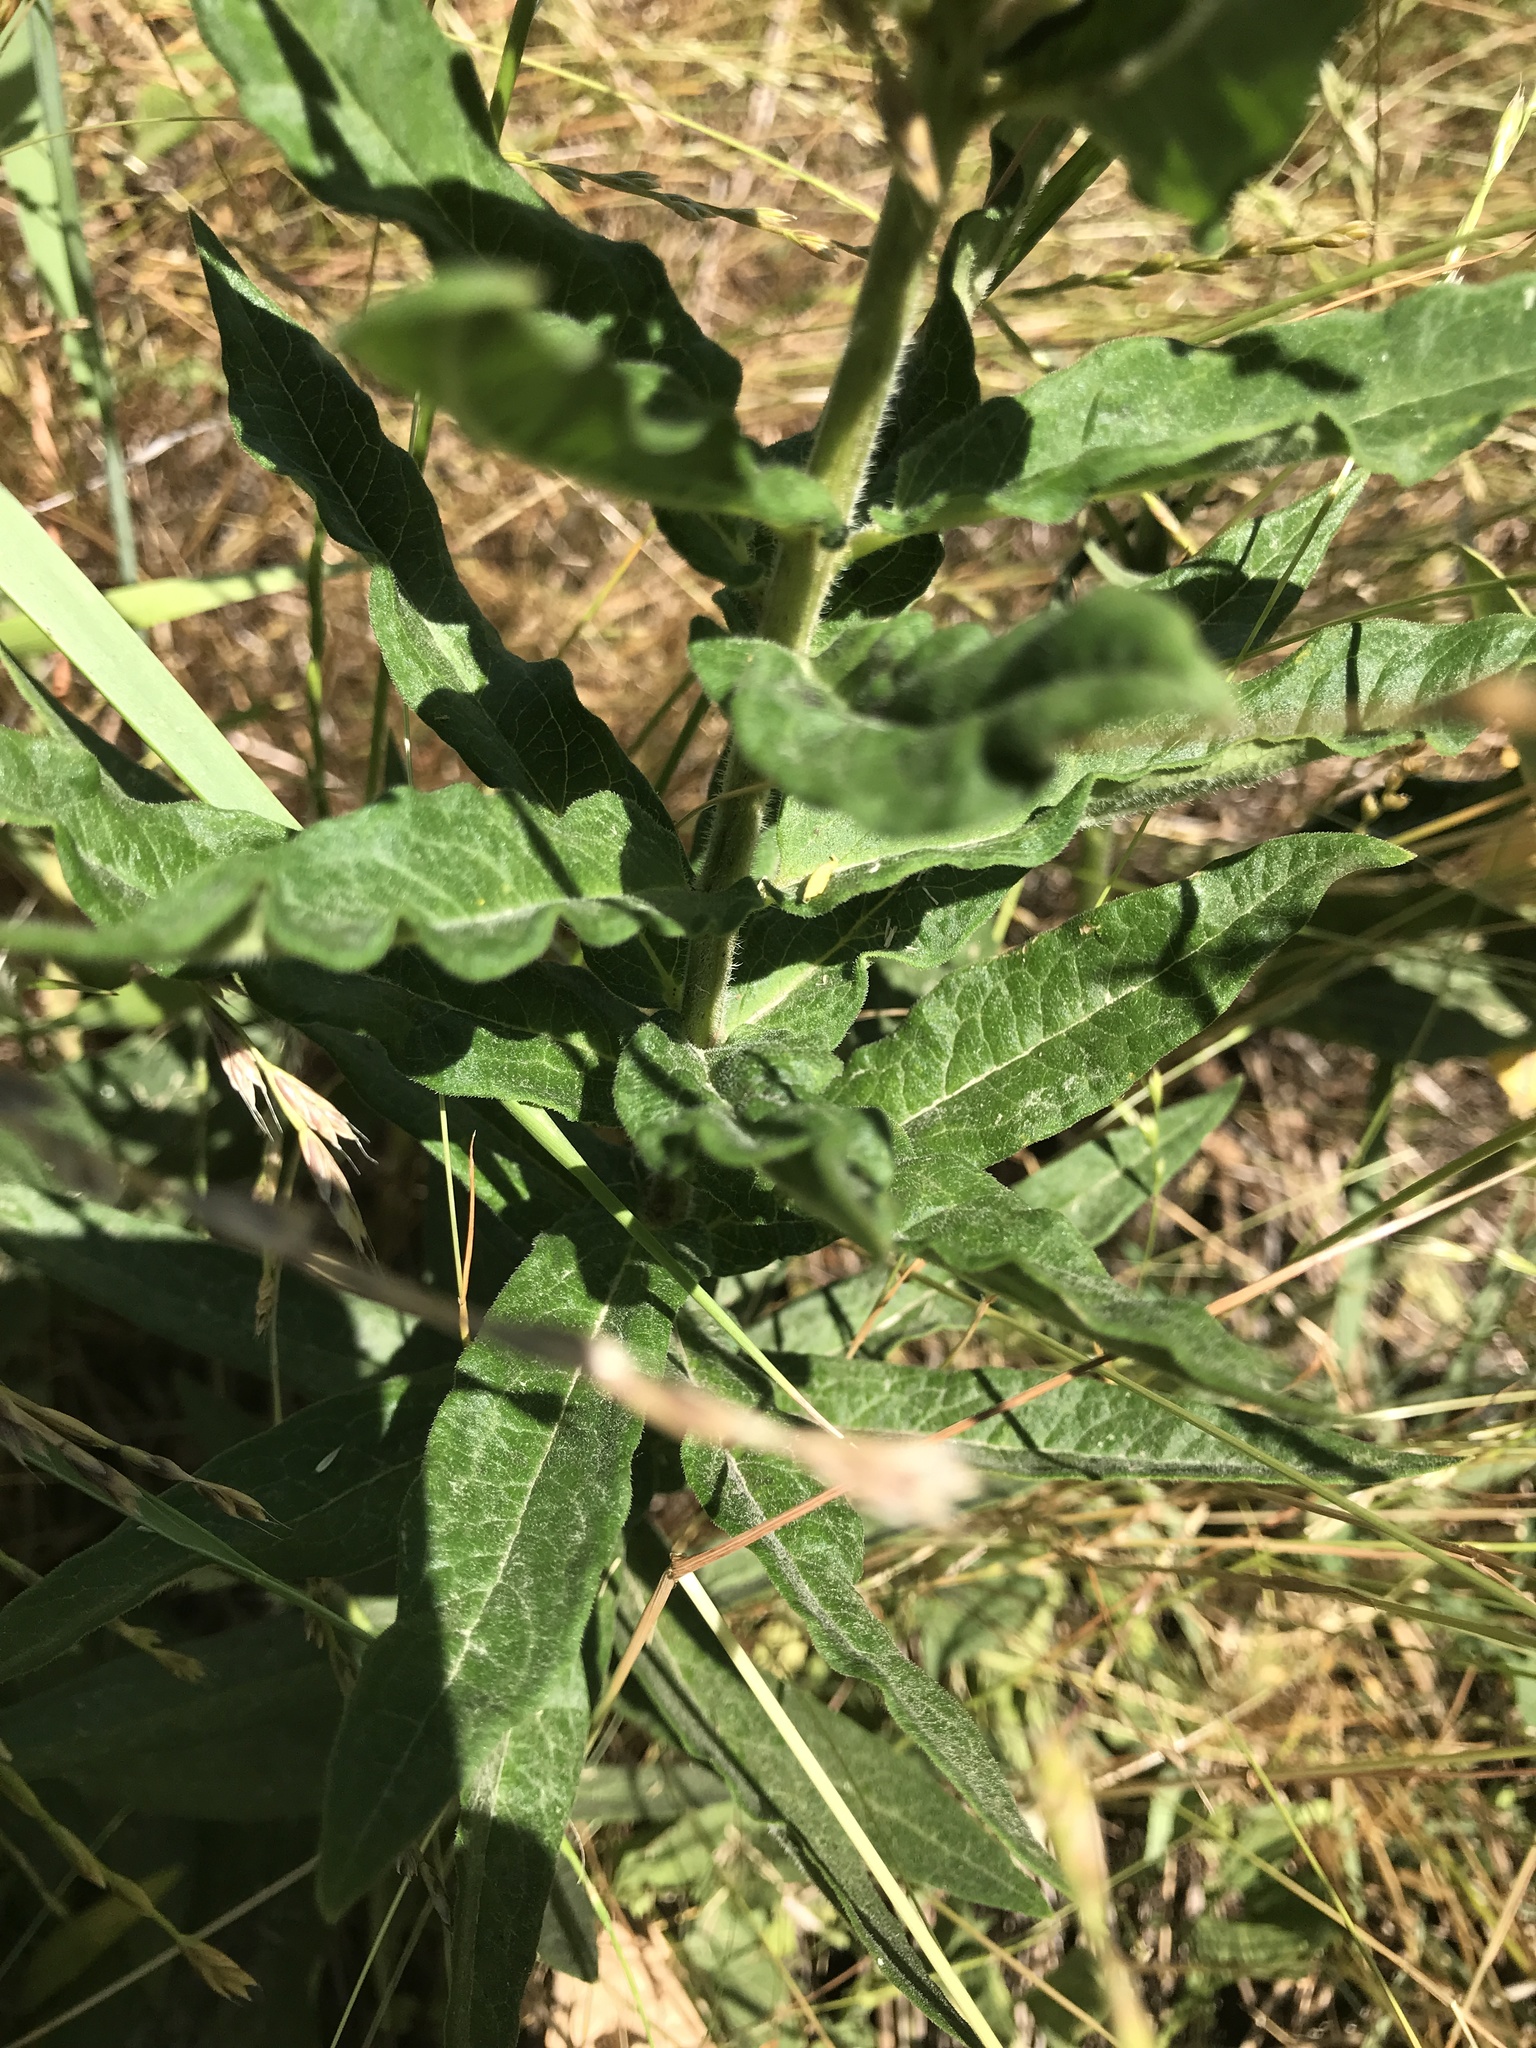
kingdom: Plantae
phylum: Tracheophyta
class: Magnoliopsida
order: Gentianales
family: Apocynaceae
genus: Asclepias
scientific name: Asclepias tuberosa
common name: Butterfly milkweed
